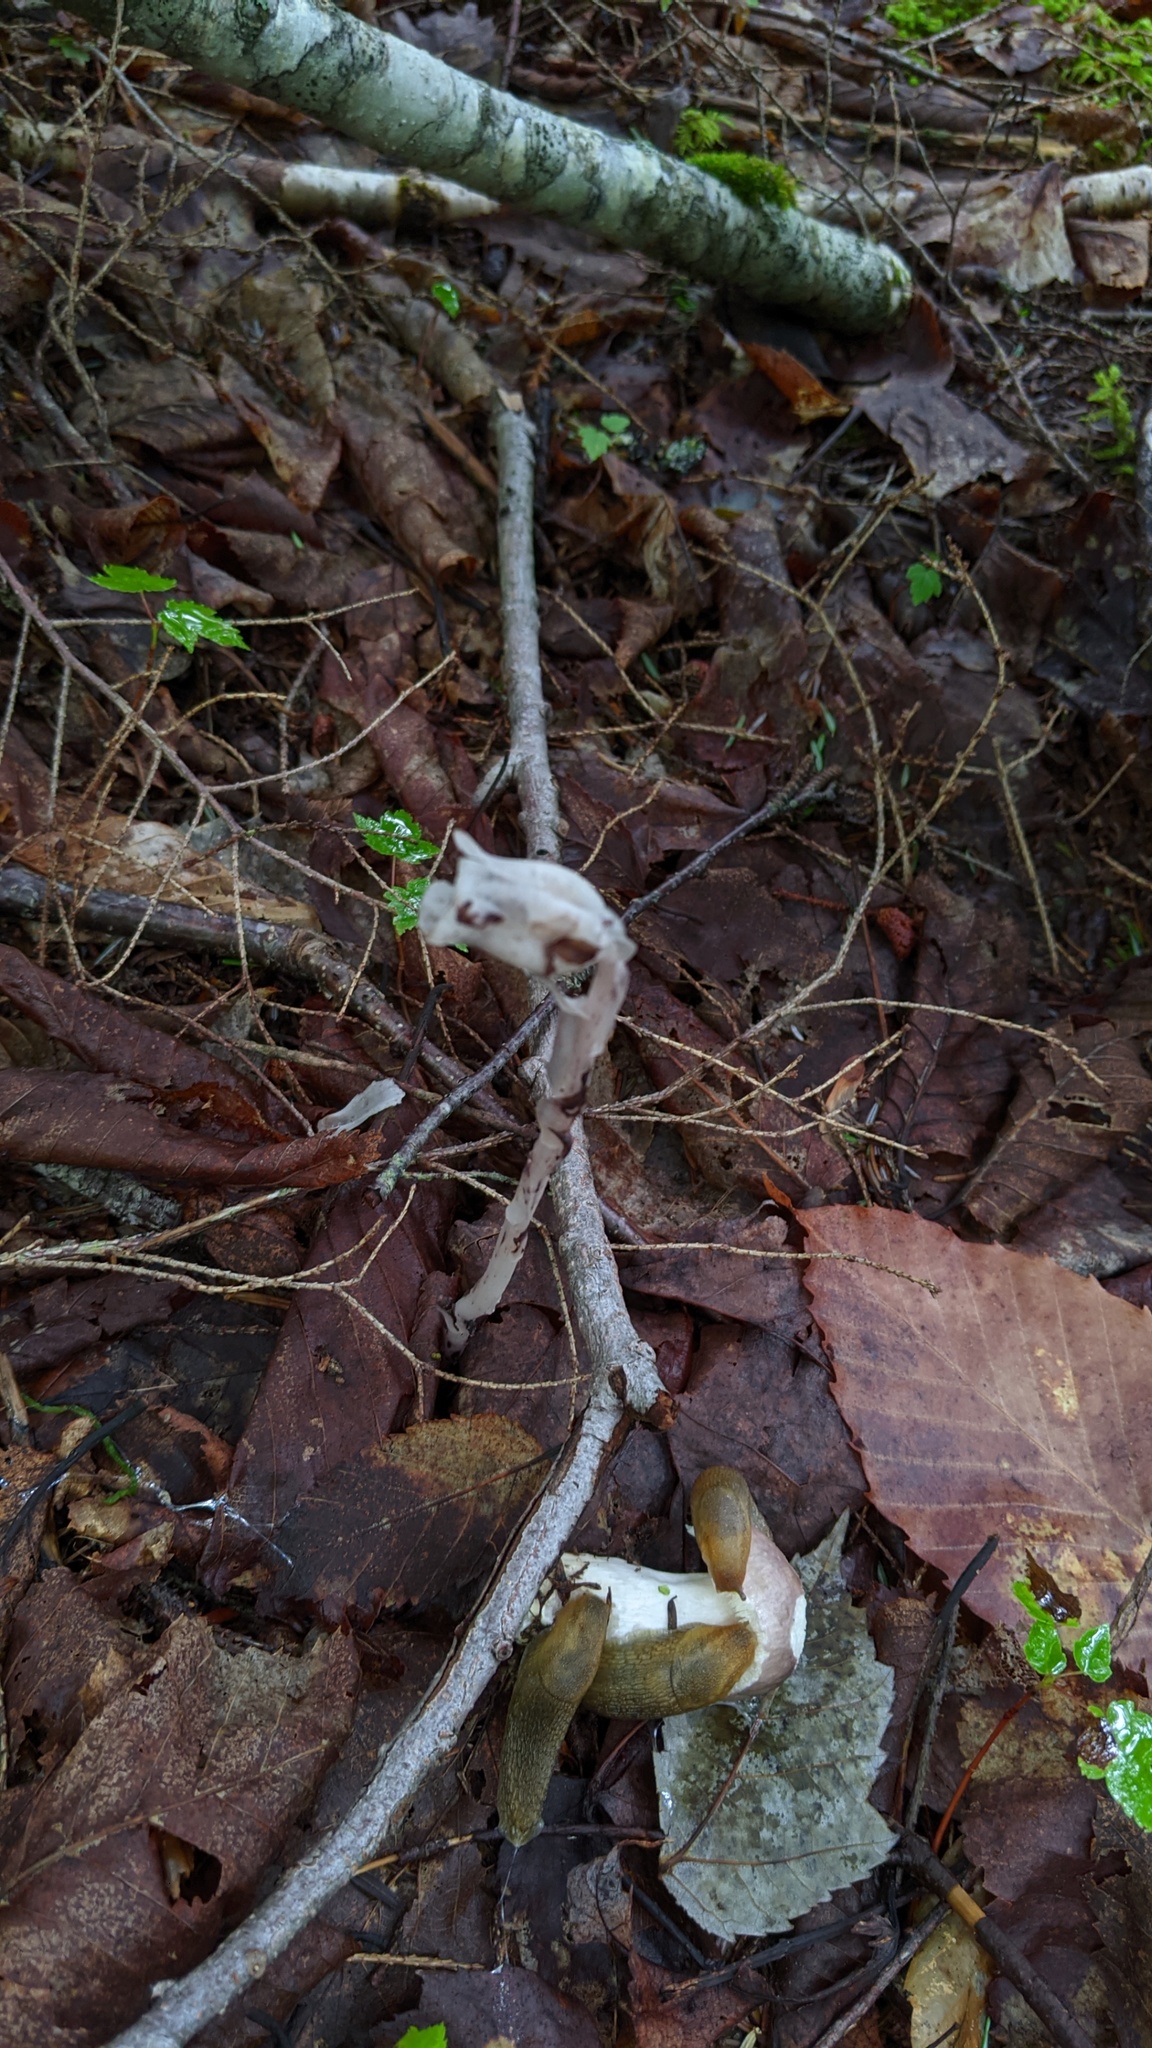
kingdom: Plantae
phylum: Tracheophyta
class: Magnoliopsida
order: Ericales
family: Ericaceae
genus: Monotropa
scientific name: Monotropa uniflora
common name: Convulsion root
